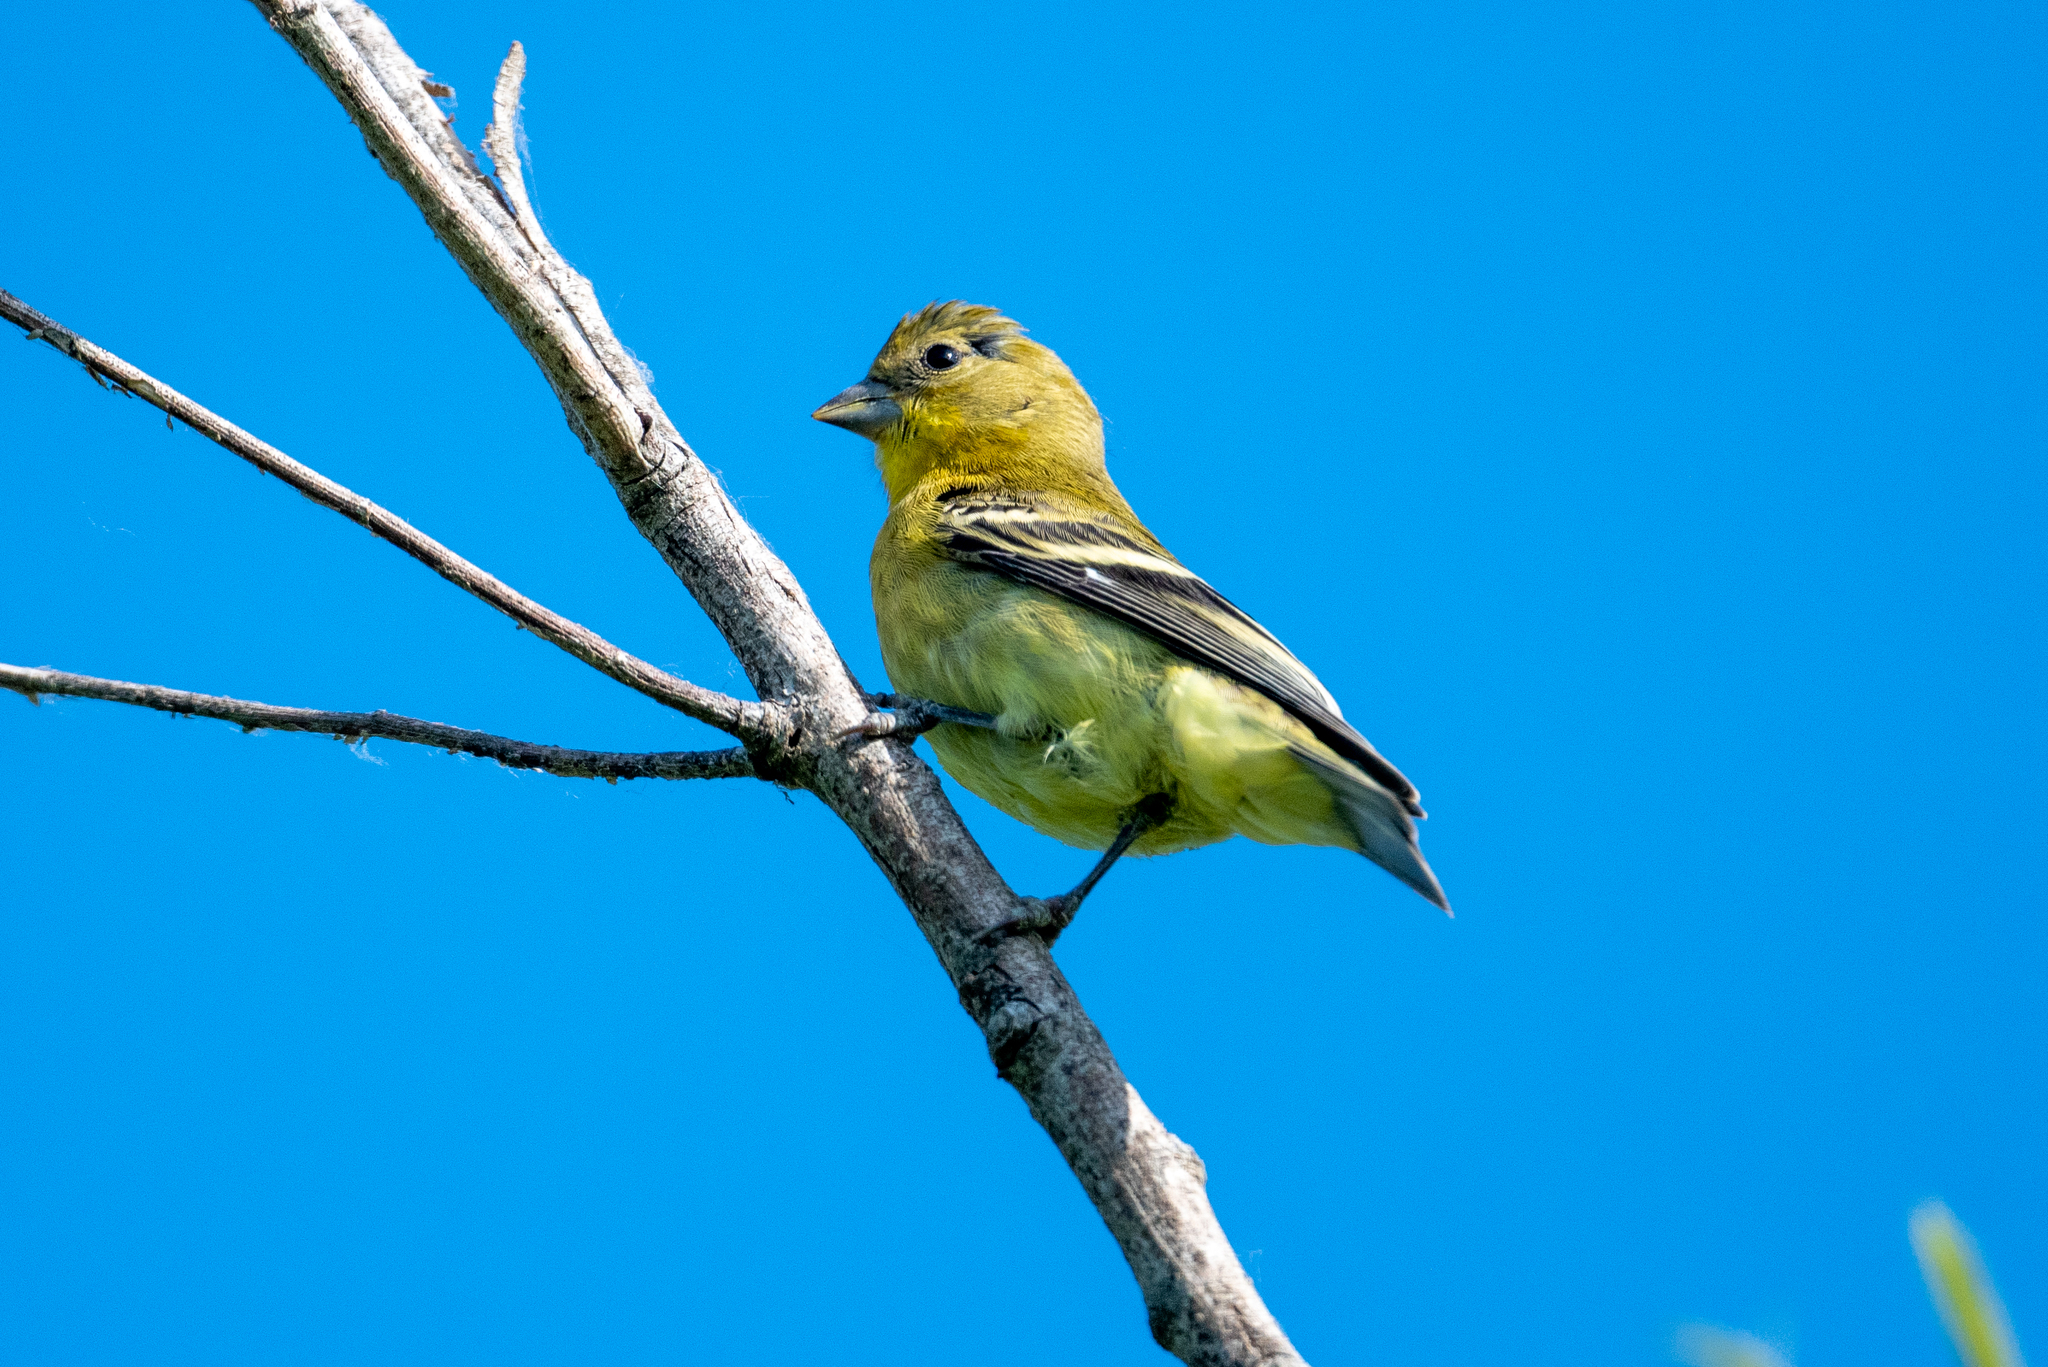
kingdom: Animalia
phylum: Chordata
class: Aves
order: Passeriformes
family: Fringillidae
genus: Spinus
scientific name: Spinus psaltria
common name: Lesser goldfinch
